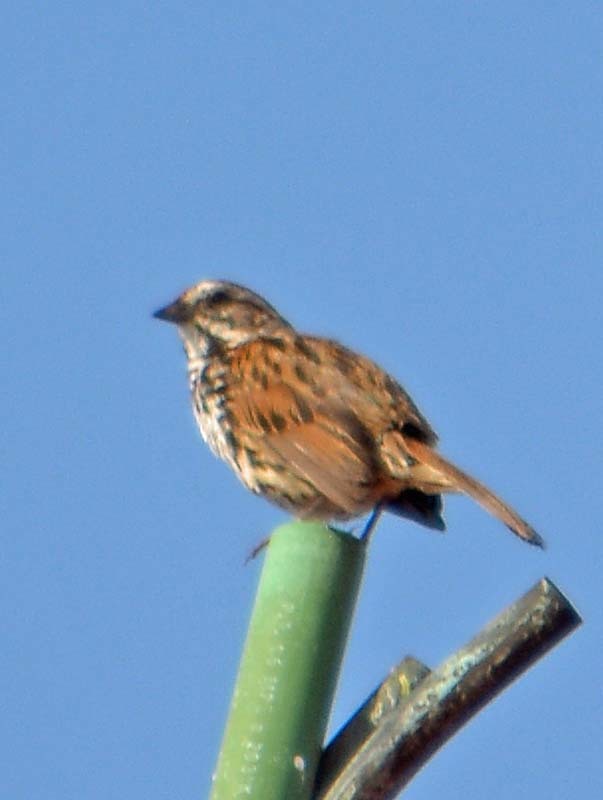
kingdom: Animalia
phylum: Chordata
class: Aves
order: Passeriformes
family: Passerellidae
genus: Melospiza
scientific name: Melospiza melodia
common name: Song sparrow
